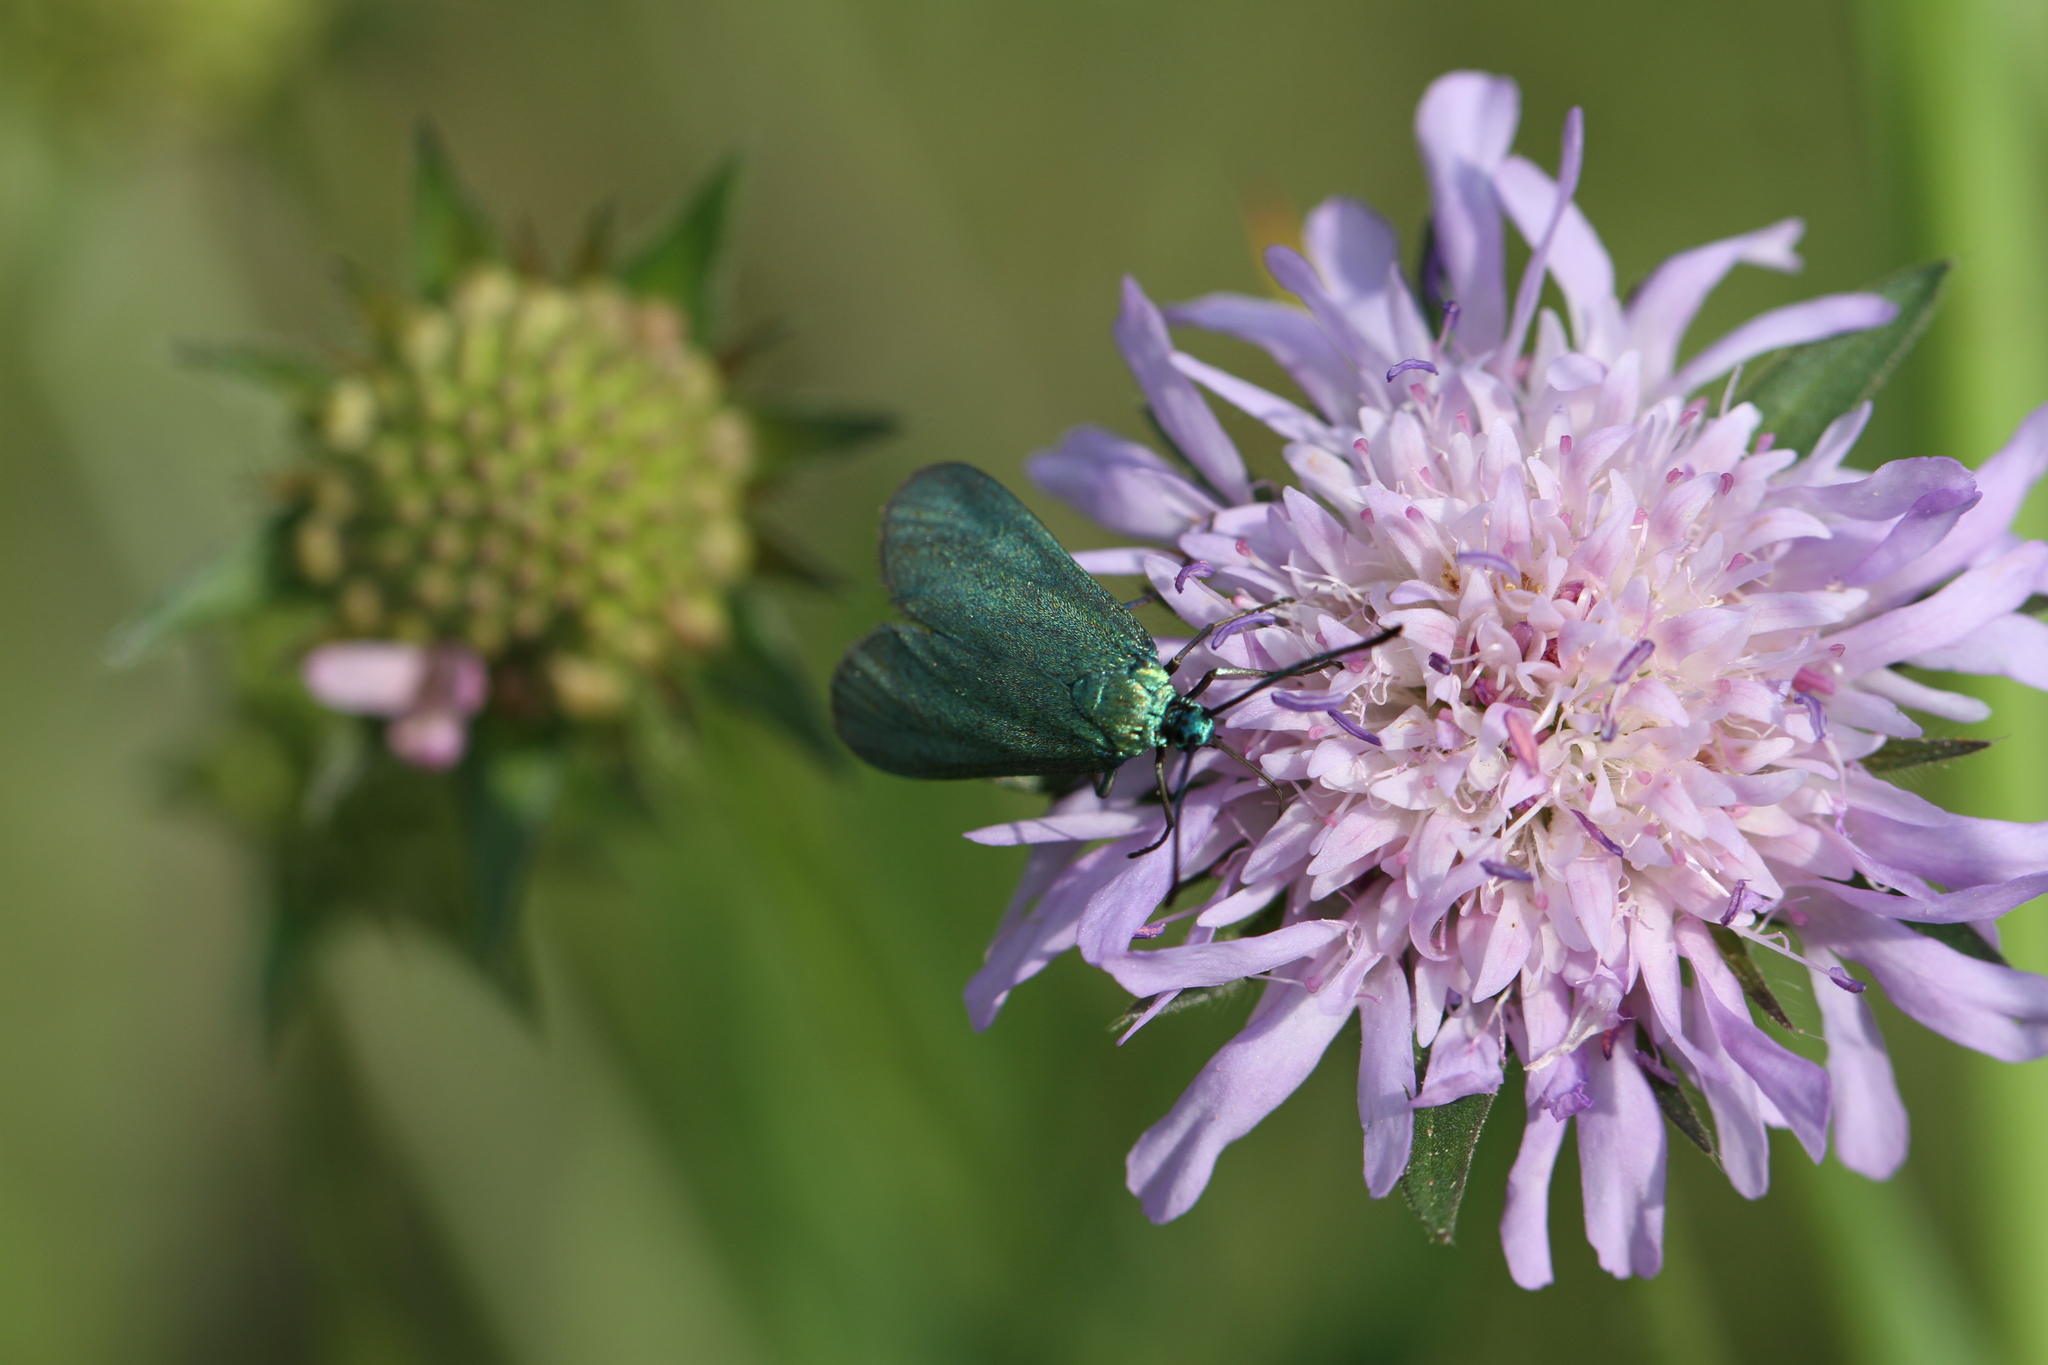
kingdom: Animalia
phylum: Arthropoda
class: Insecta
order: Lepidoptera
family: Zygaenidae
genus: Adscita
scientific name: Adscita statices
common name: Forester
